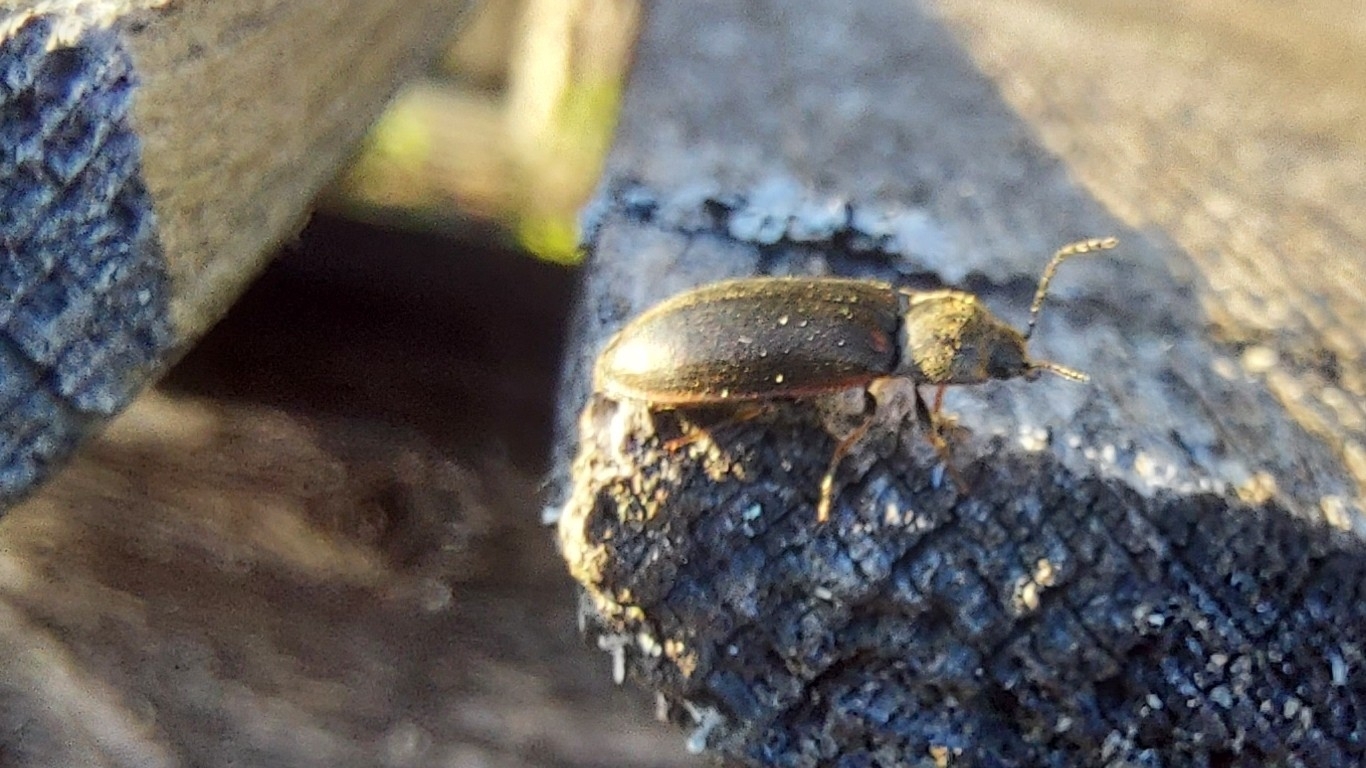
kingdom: Animalia
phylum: Arthropoda
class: Insecta
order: Coleoptera
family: Elateridae
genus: Eanus
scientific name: Eanus costalis
